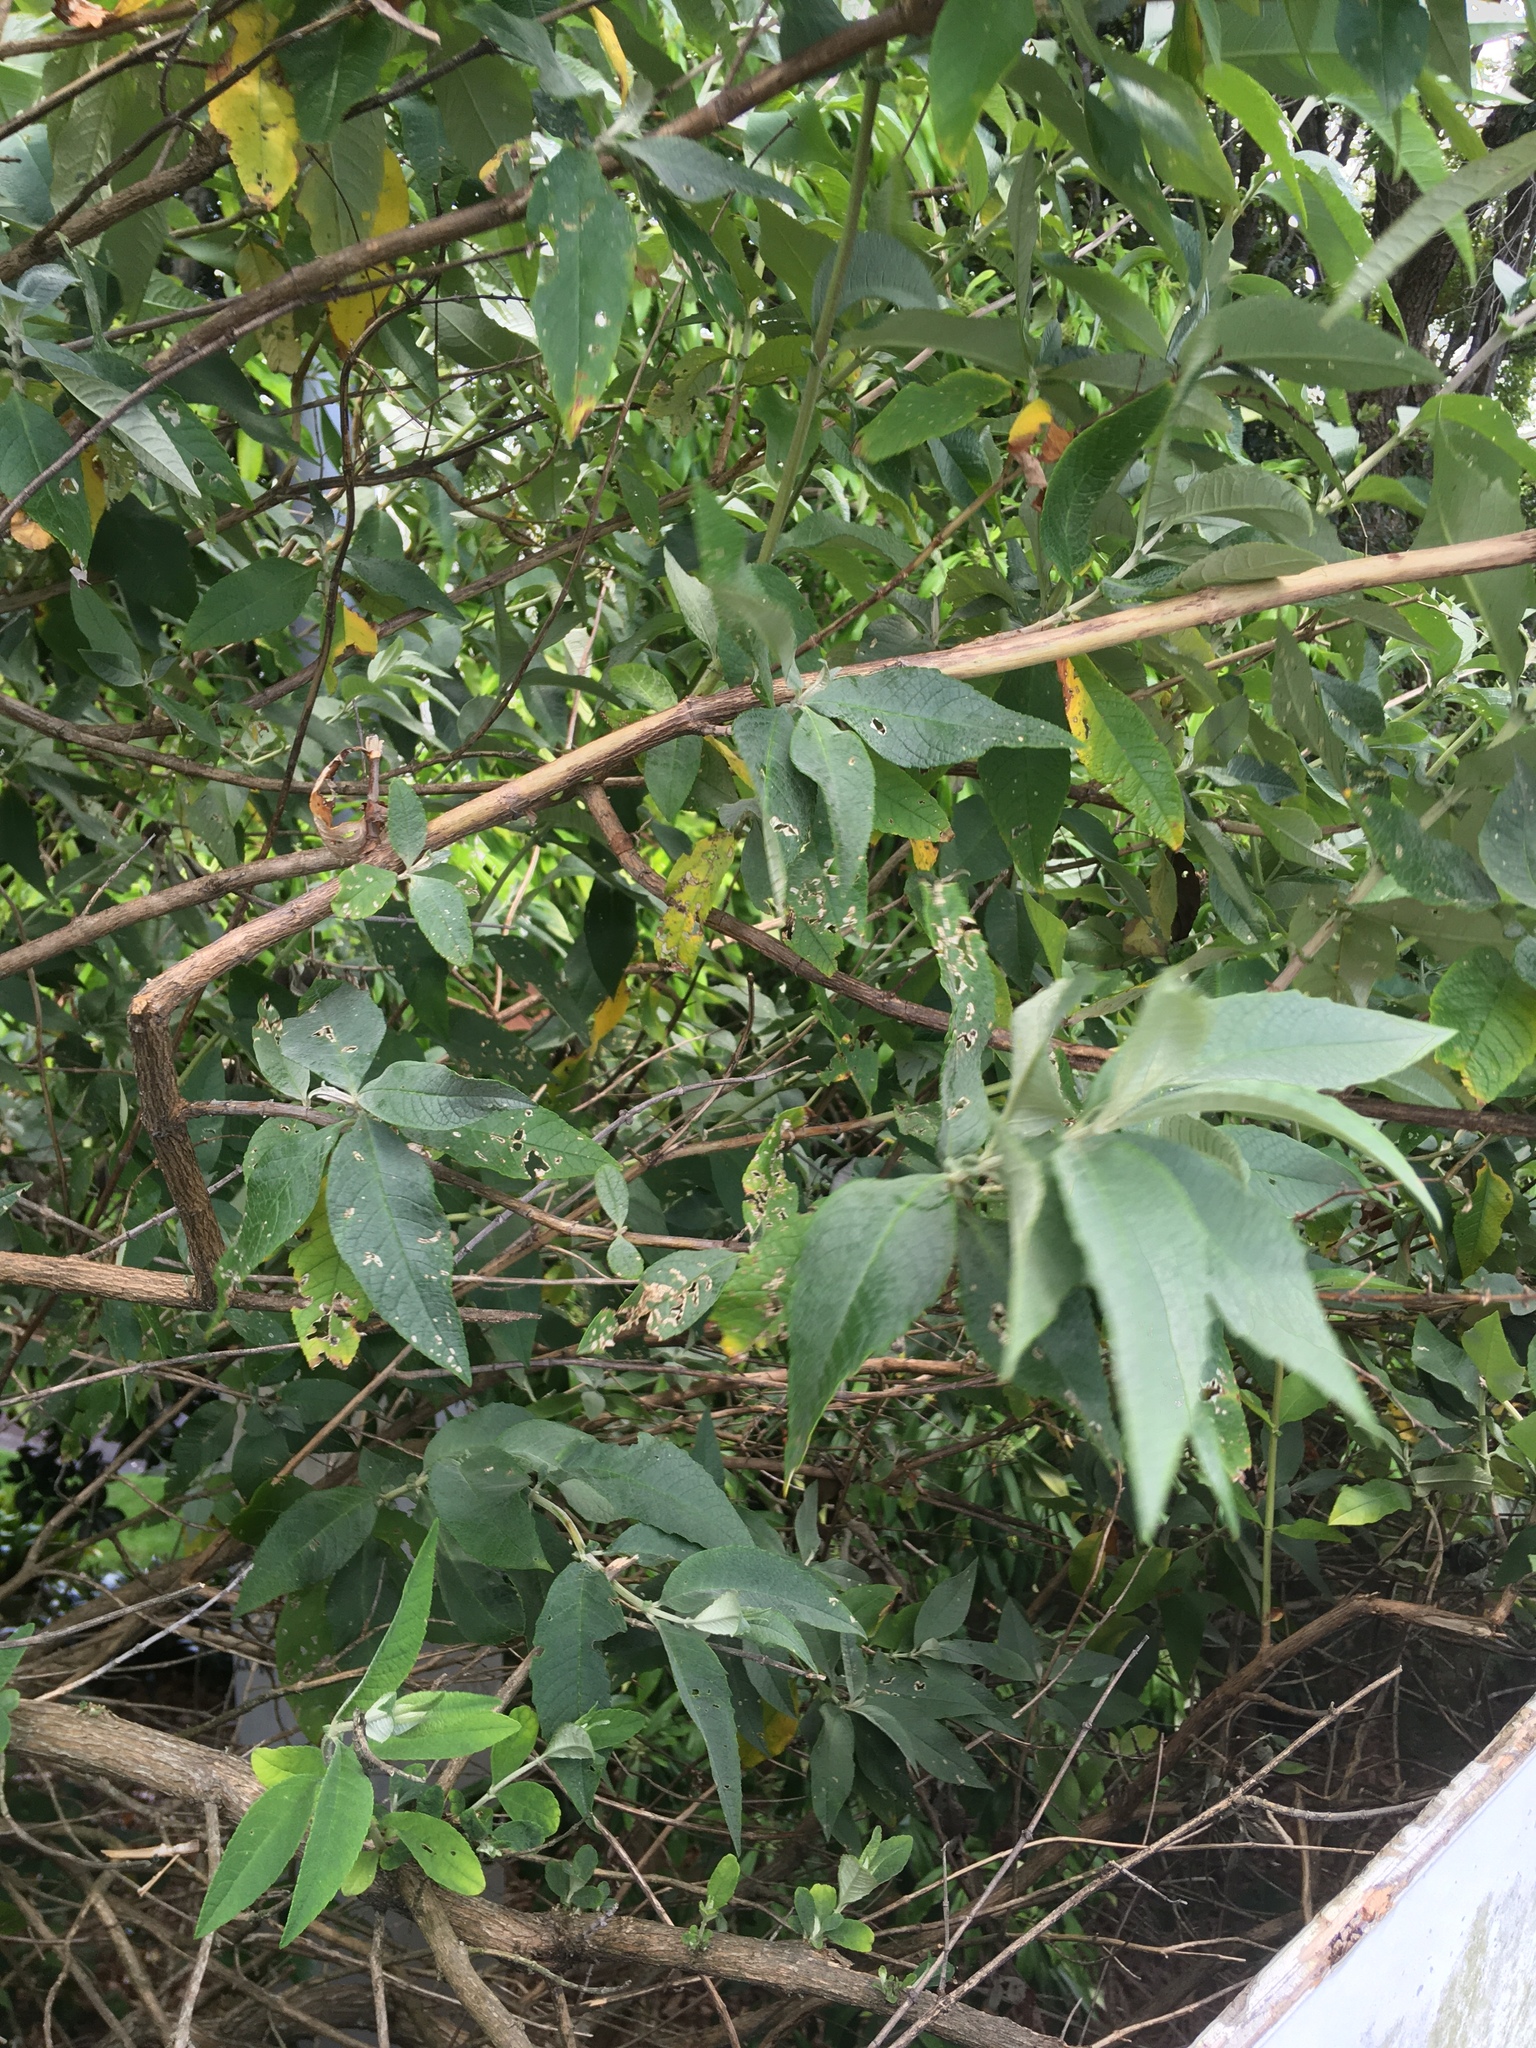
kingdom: Plantae
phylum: Tracheophyta
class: Magnoliopsida
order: Lamiales
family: Scrophulariaceae
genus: Buddleja
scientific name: Buddleja davidii
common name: Butterfly-bush
